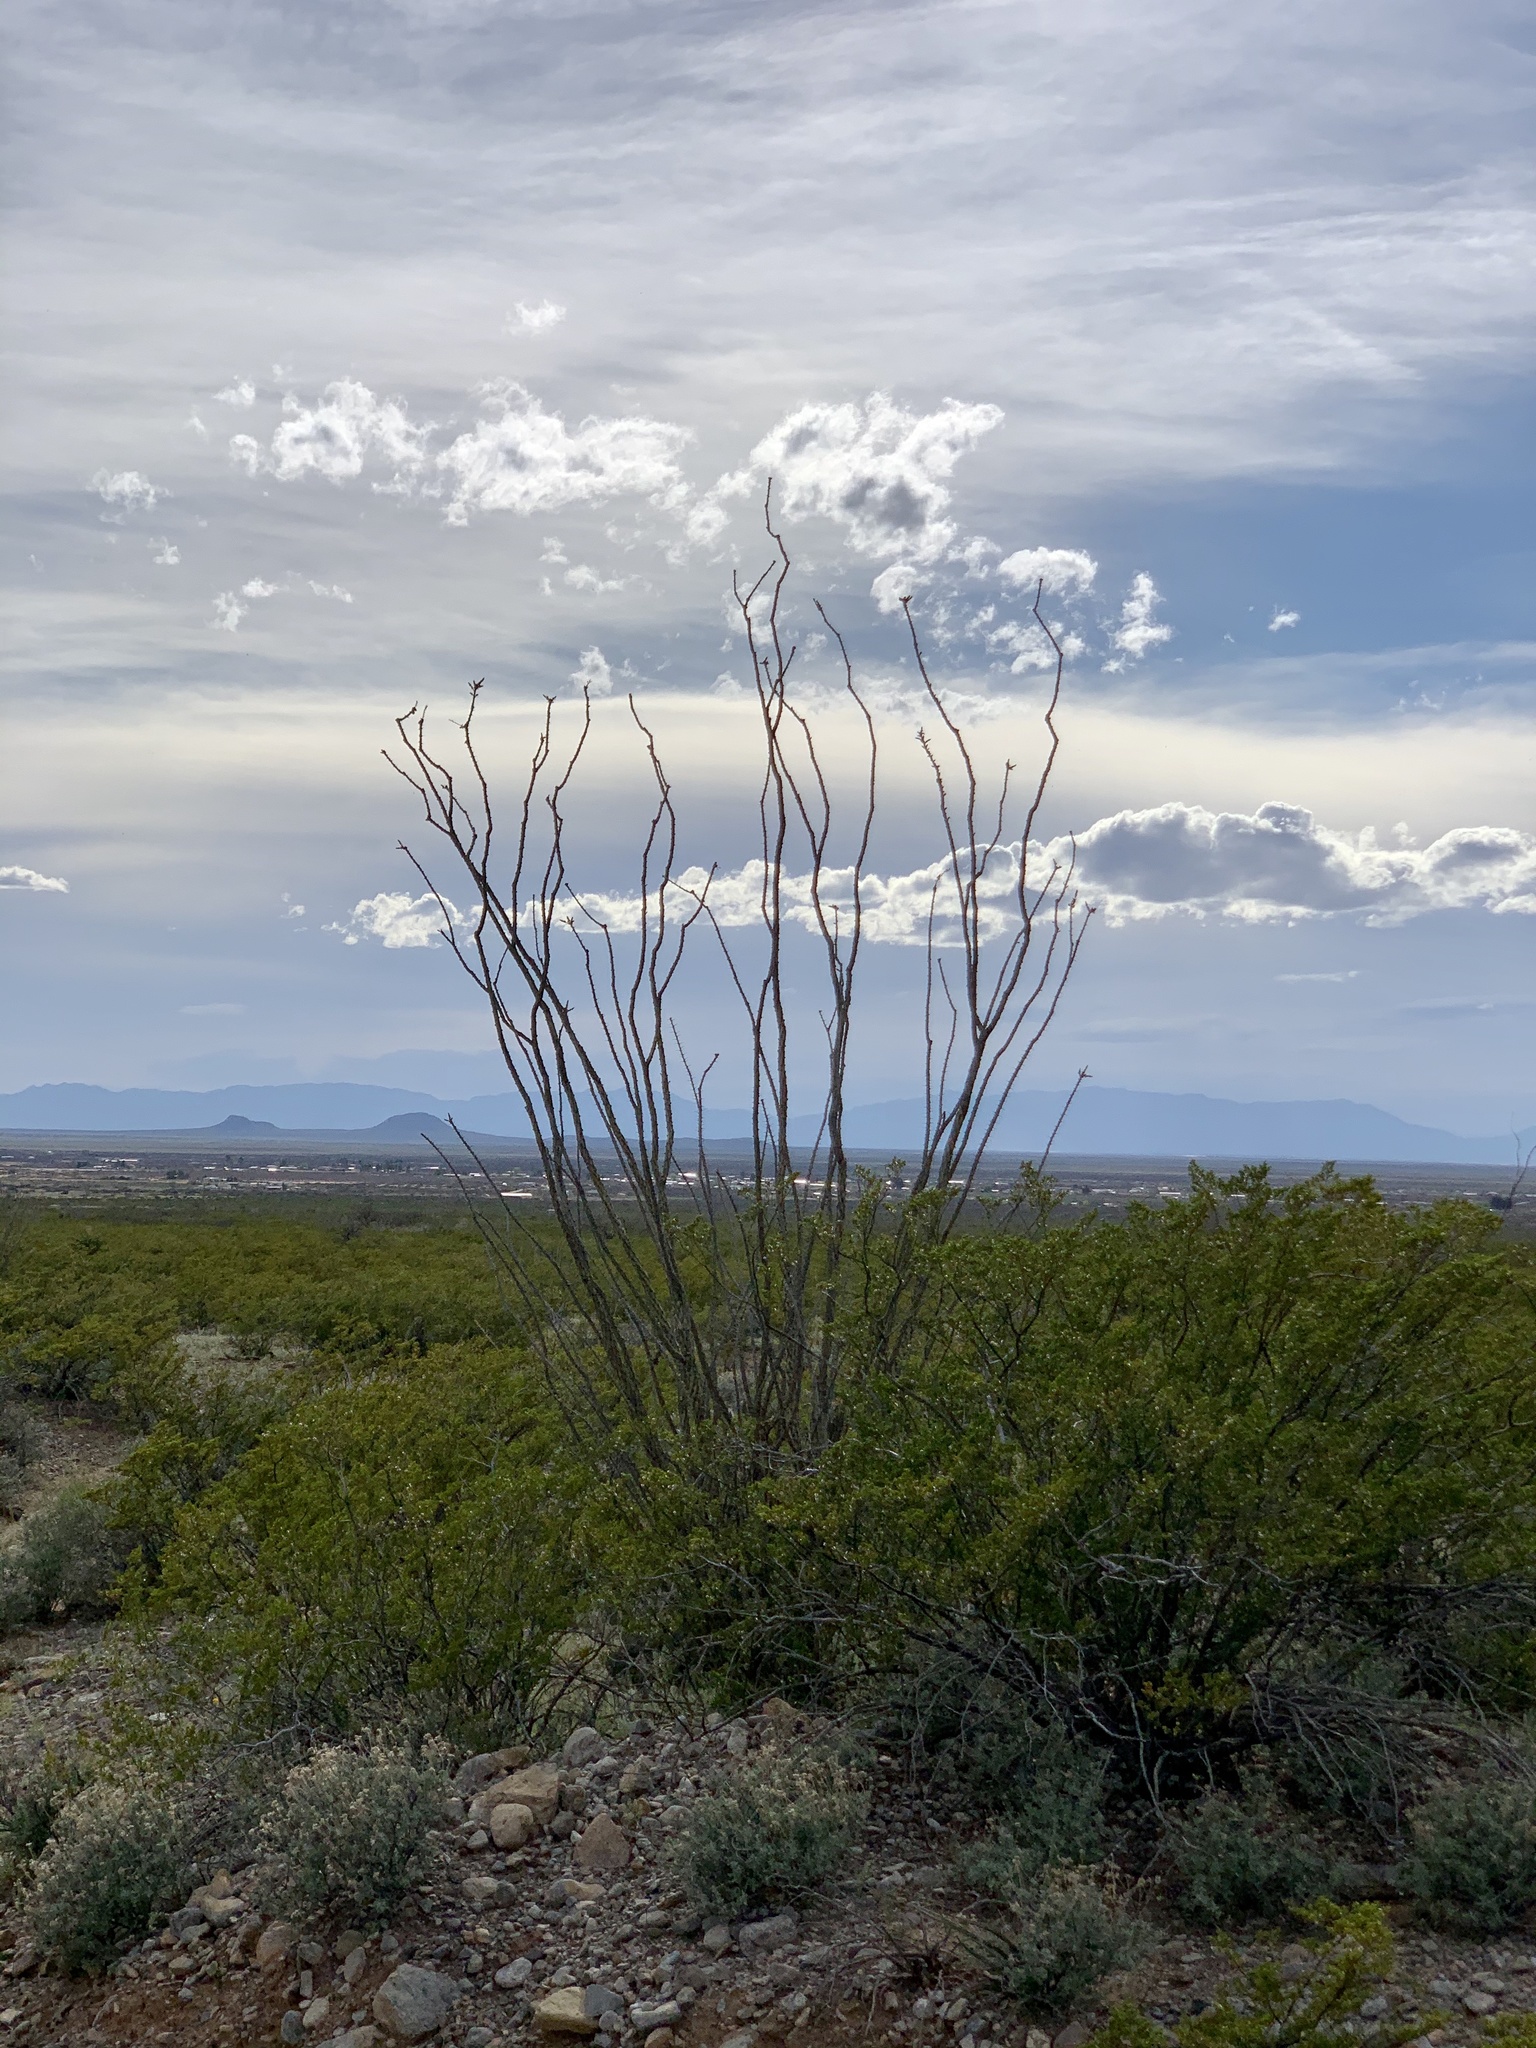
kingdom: Plantae
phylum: Tracheophyta
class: Magnoliopsida
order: Ericales
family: Fouquieriaceae
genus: Fouquieria
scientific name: Fouquieria splendens
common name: Vine-cactus
